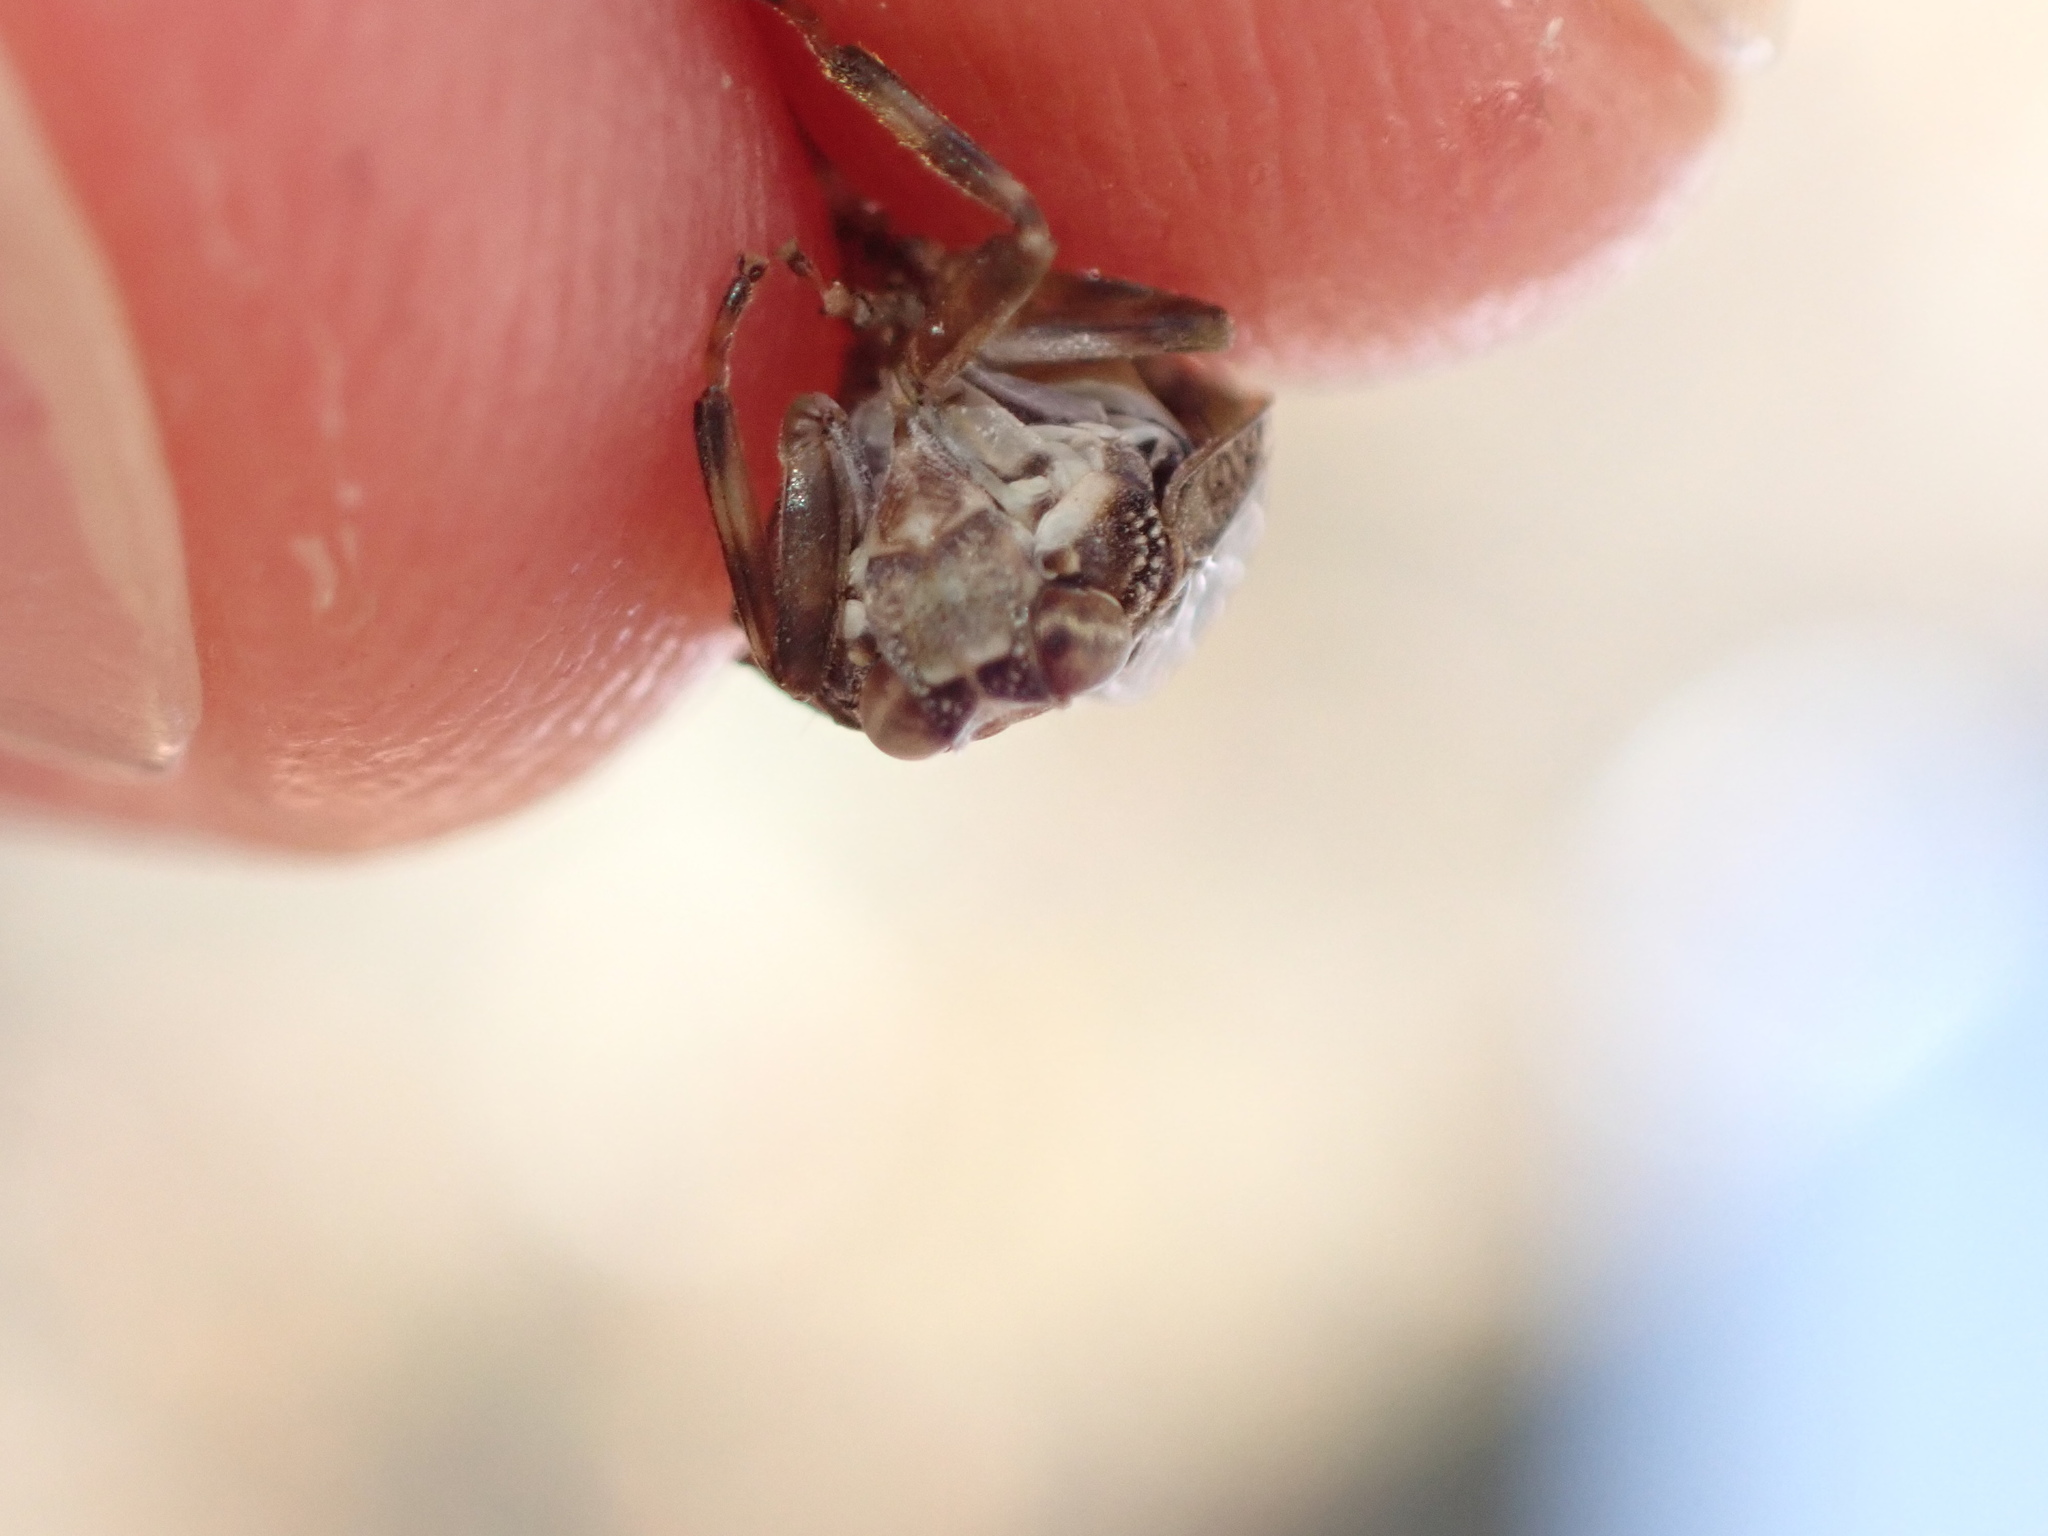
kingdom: Animalia
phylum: Arthropoda
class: Insecta
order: Hemiptera
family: Issidae
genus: Issus
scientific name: Issus coleoptratus
